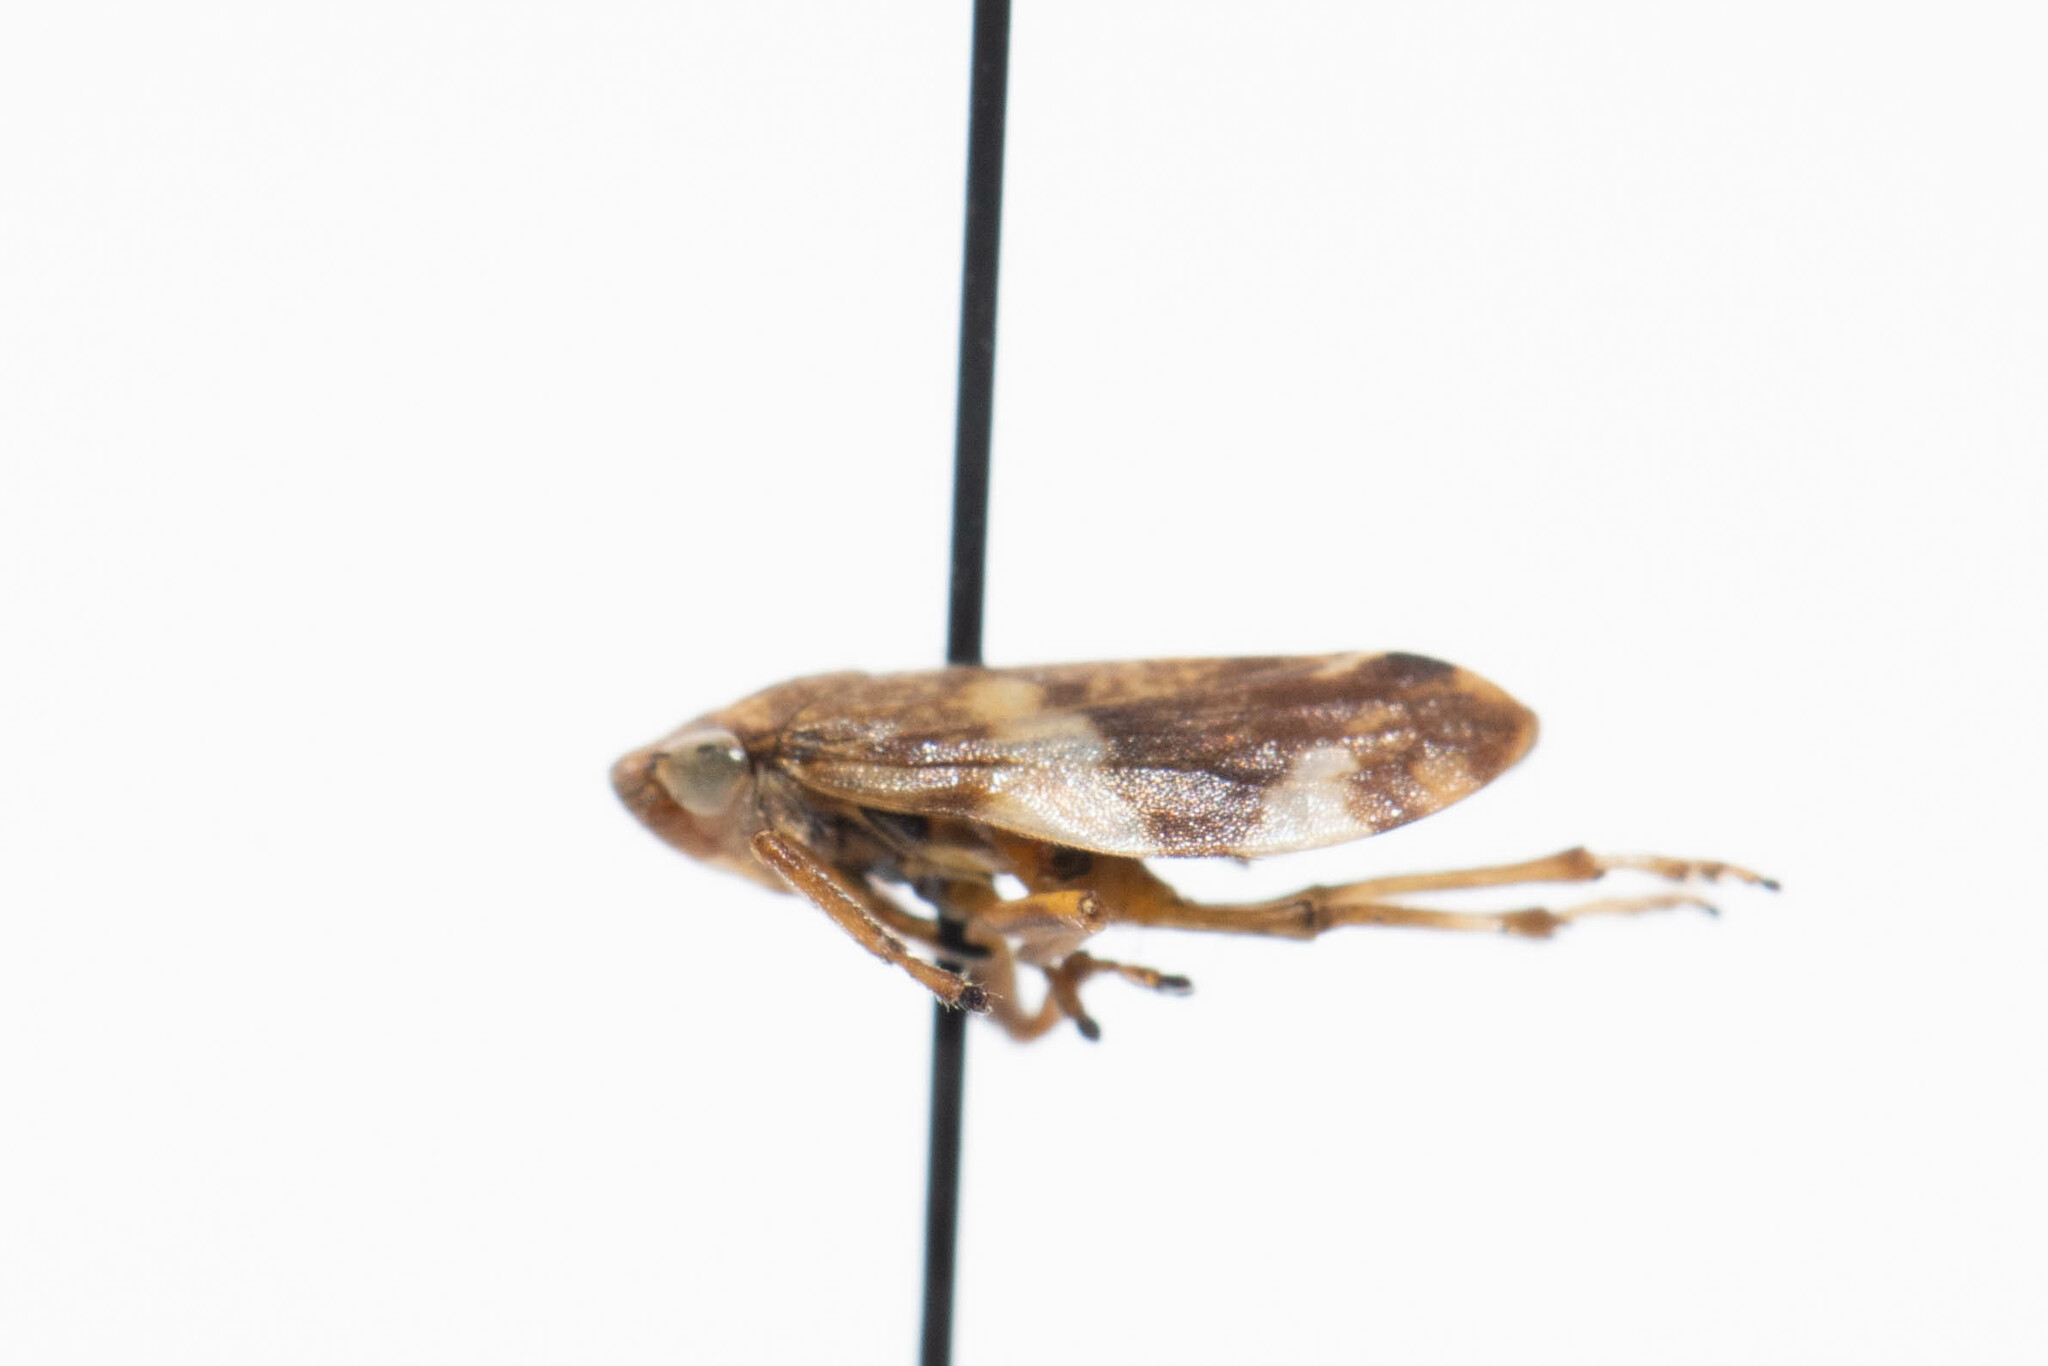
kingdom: Animalia
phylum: Arthropoda
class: Insecta
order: Hemiptera
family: Aphrophoridae
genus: Philaenus
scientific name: Philaenus spumarius
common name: Meadow spittlebug
